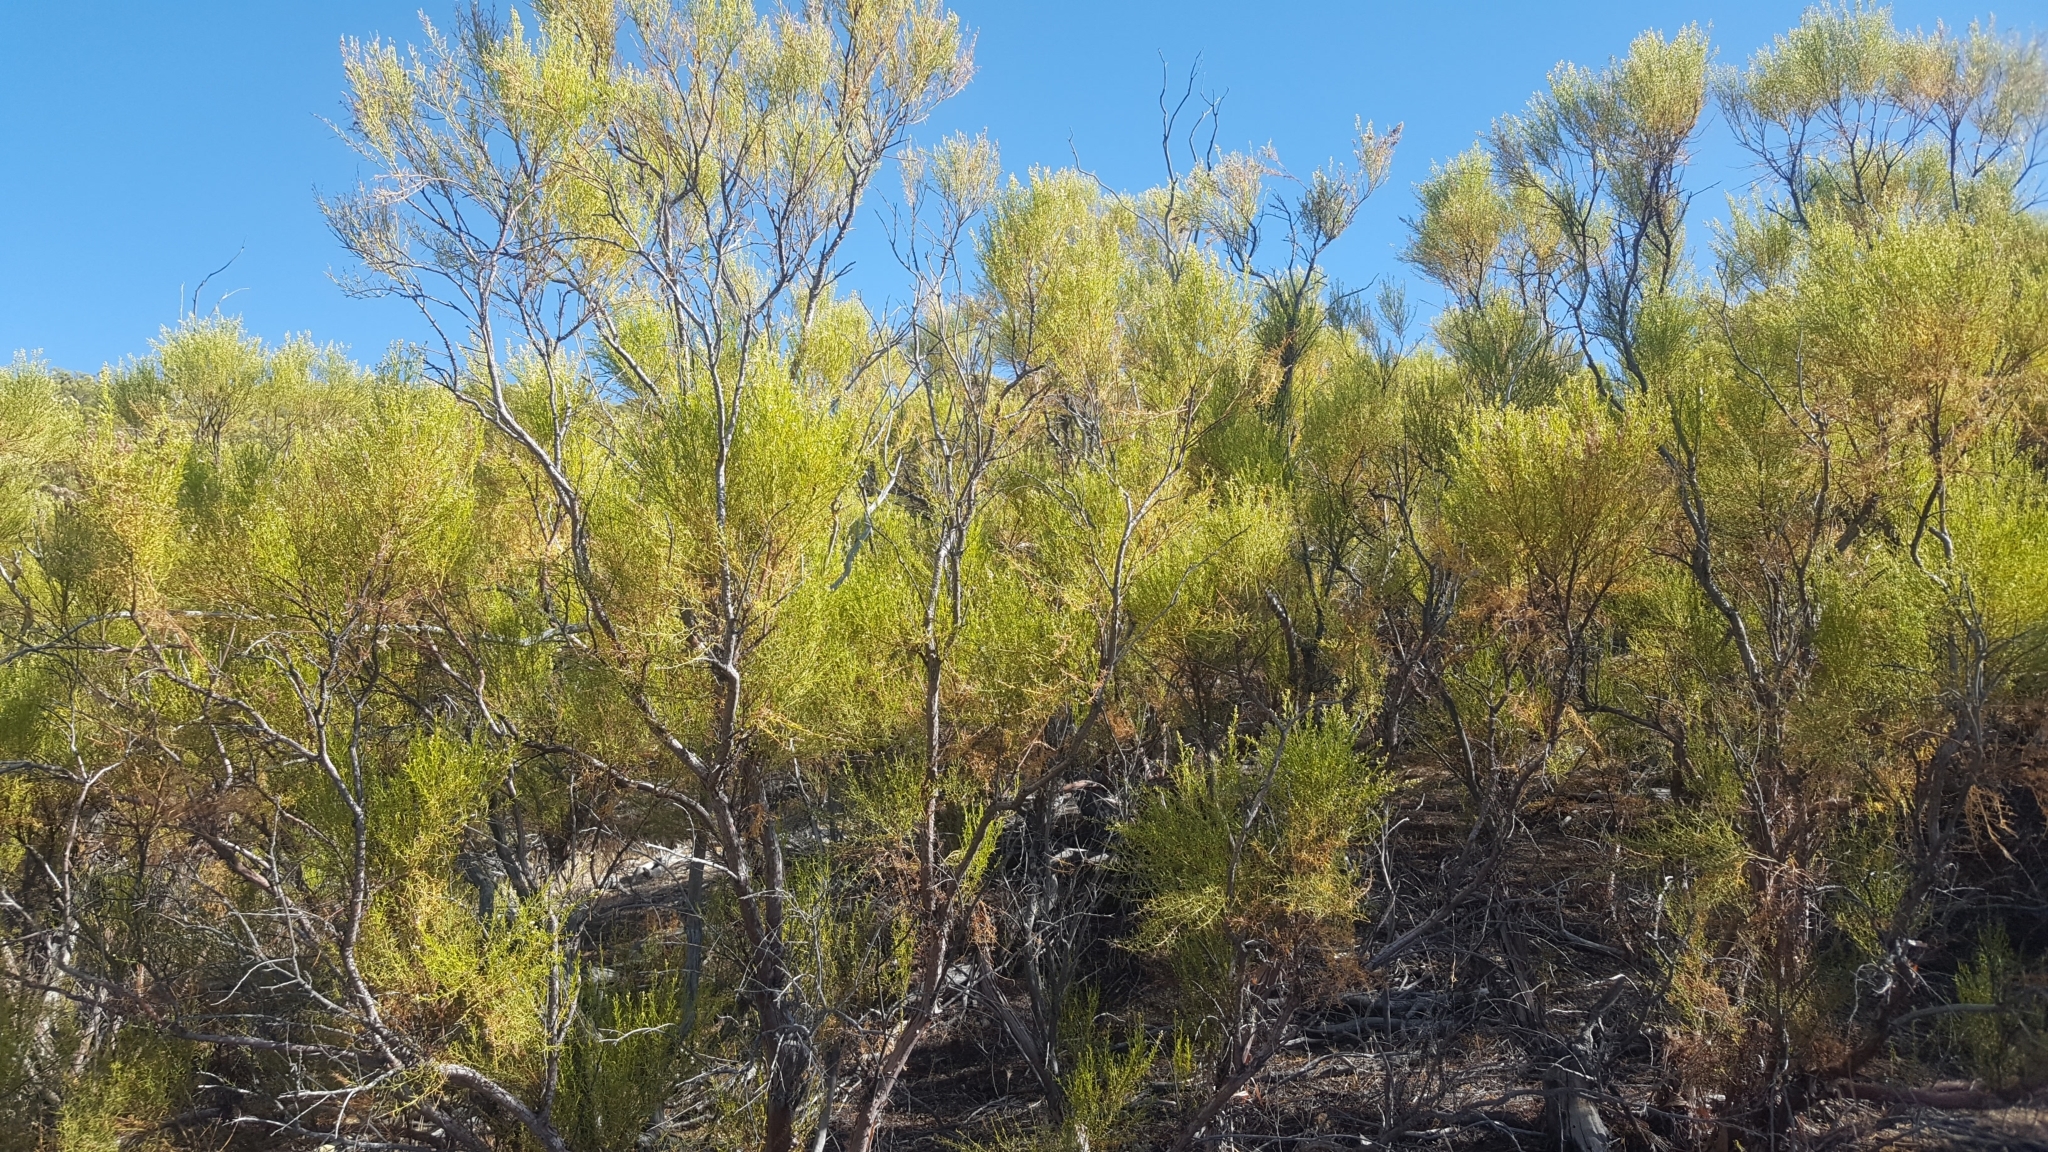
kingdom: Plantae
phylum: Tracheophyta
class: Magnoliopsida
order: Rosales
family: Rosaceae
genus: Adenostoma
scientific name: Adenostoma sparsifolium
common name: Red shank
